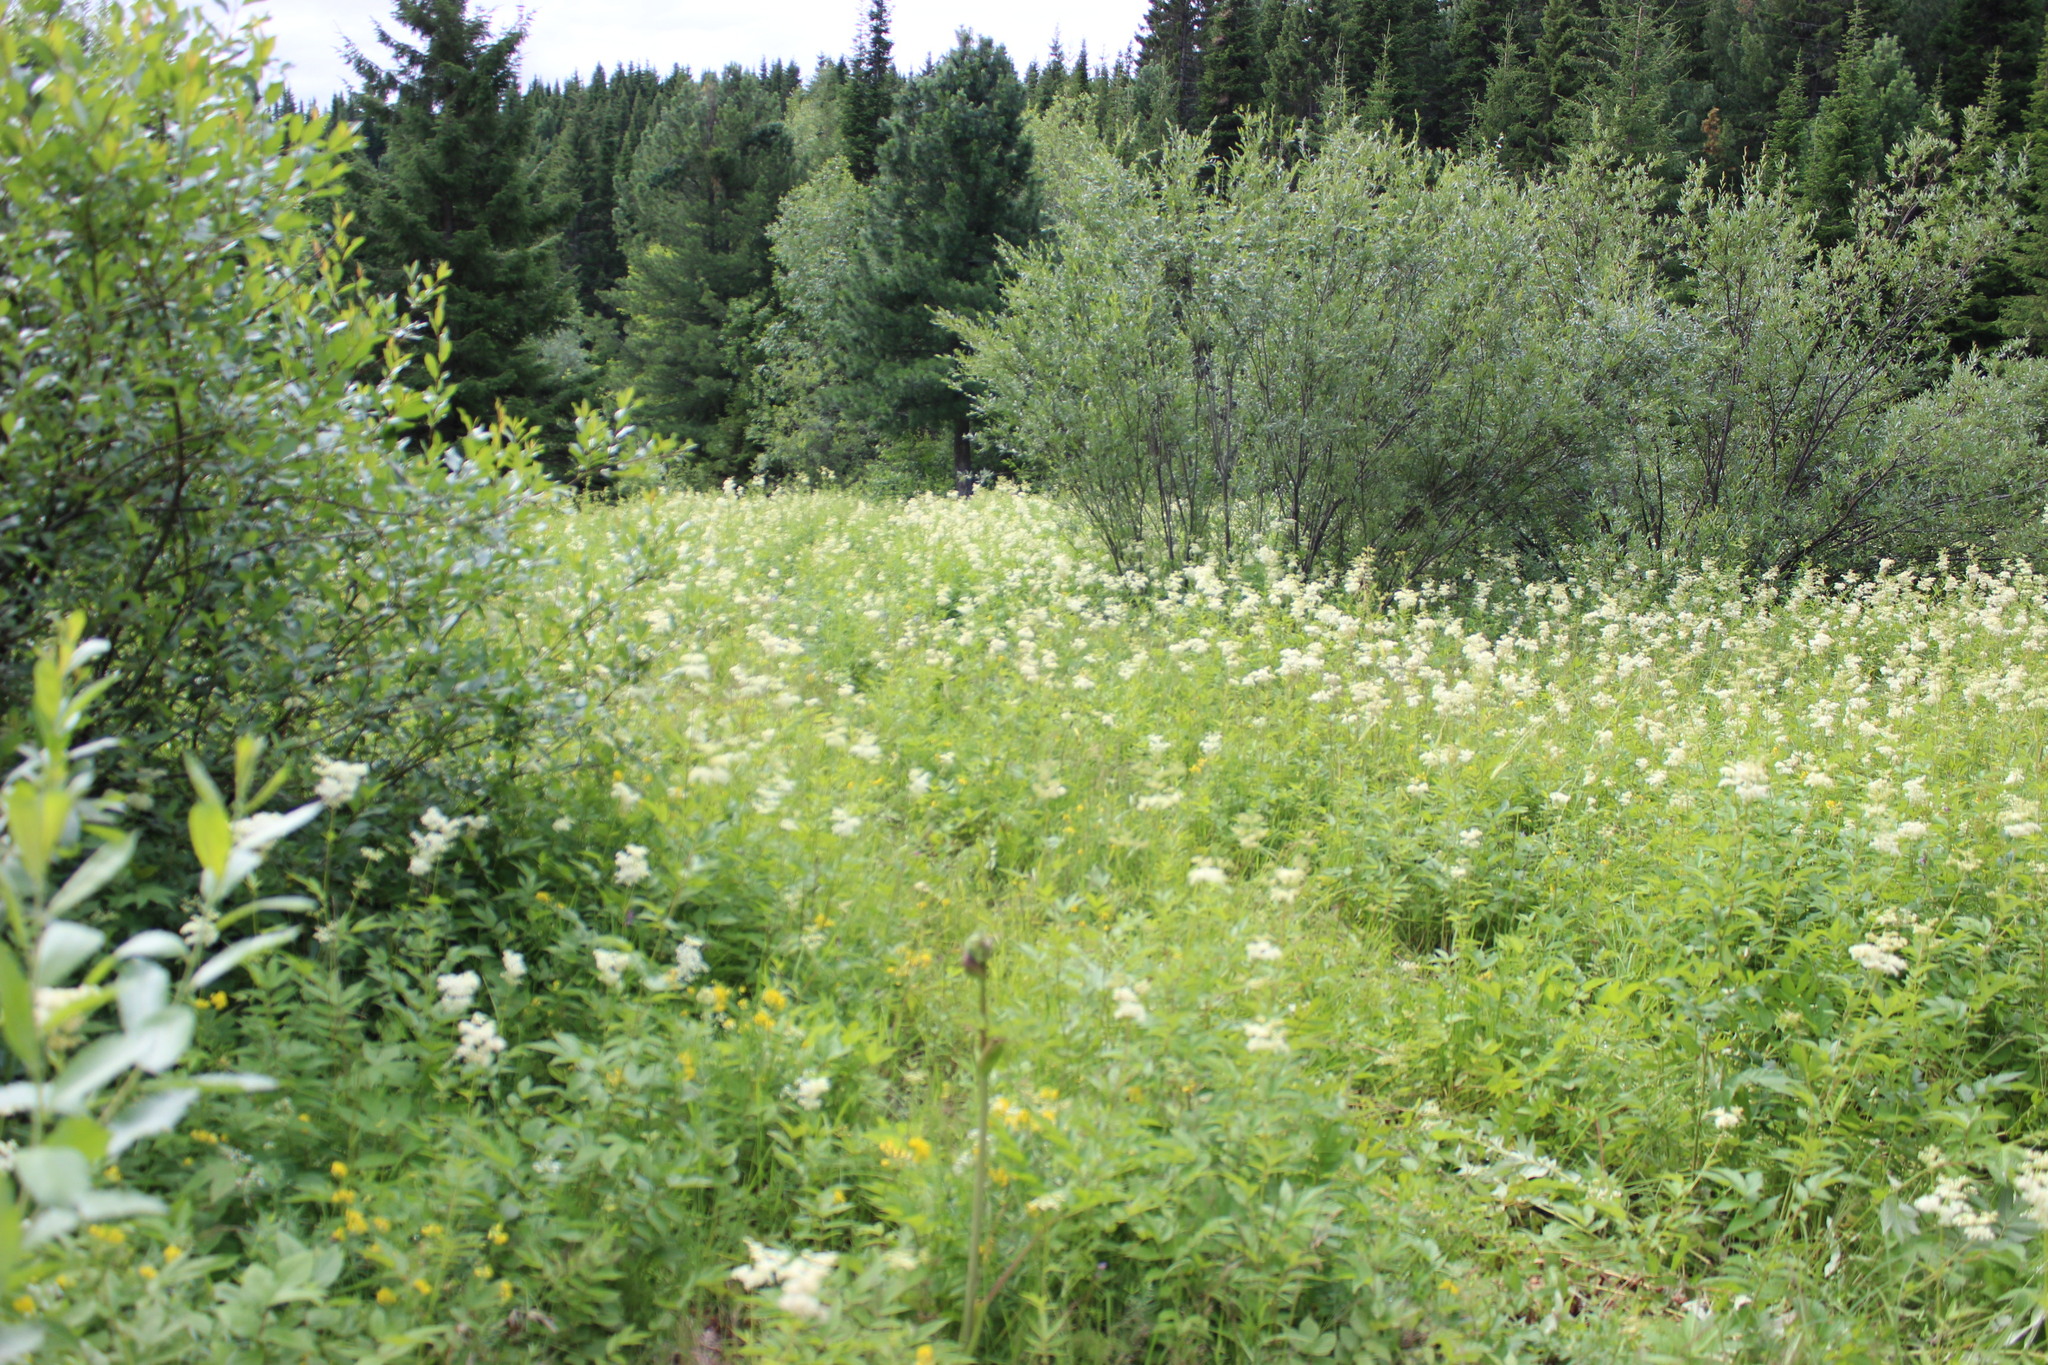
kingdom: Plantae
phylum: Tracheophyta
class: Magnoliopsida
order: Rosales
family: Rosaceae
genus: Filipendula
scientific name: Filipendula ulmaria
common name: Meadowsweet
